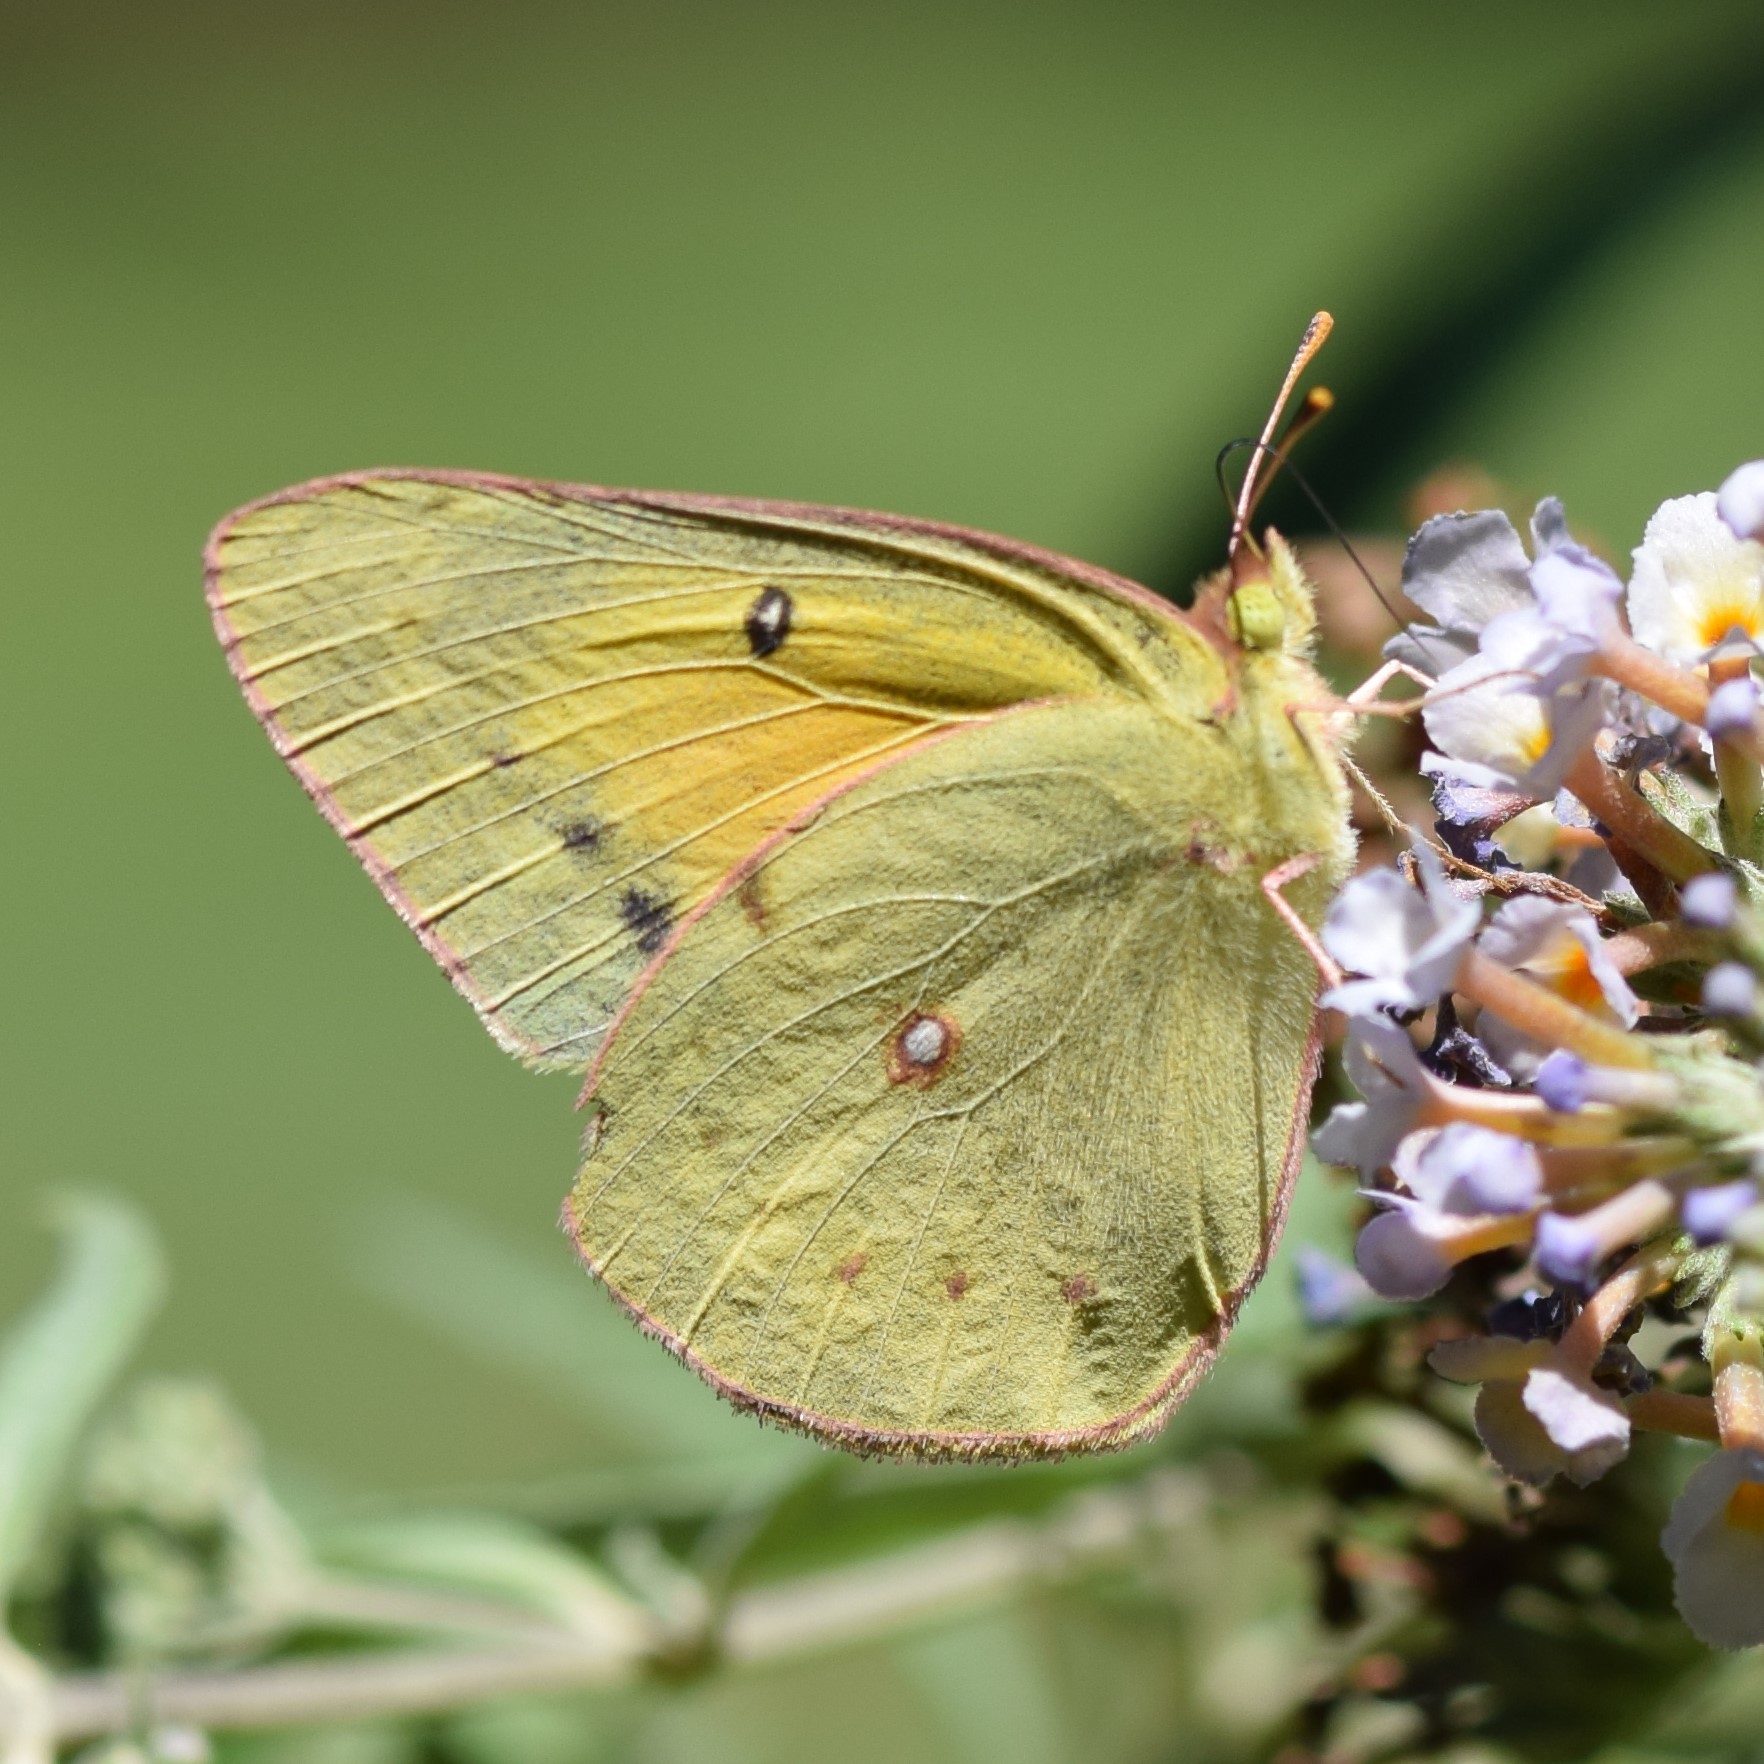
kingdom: Animalia
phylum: Arthropoda
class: Insecta
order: Lepidoptera
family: Pieridae
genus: Colias
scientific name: Colias eurytheme
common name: Alfalfa butterfly
